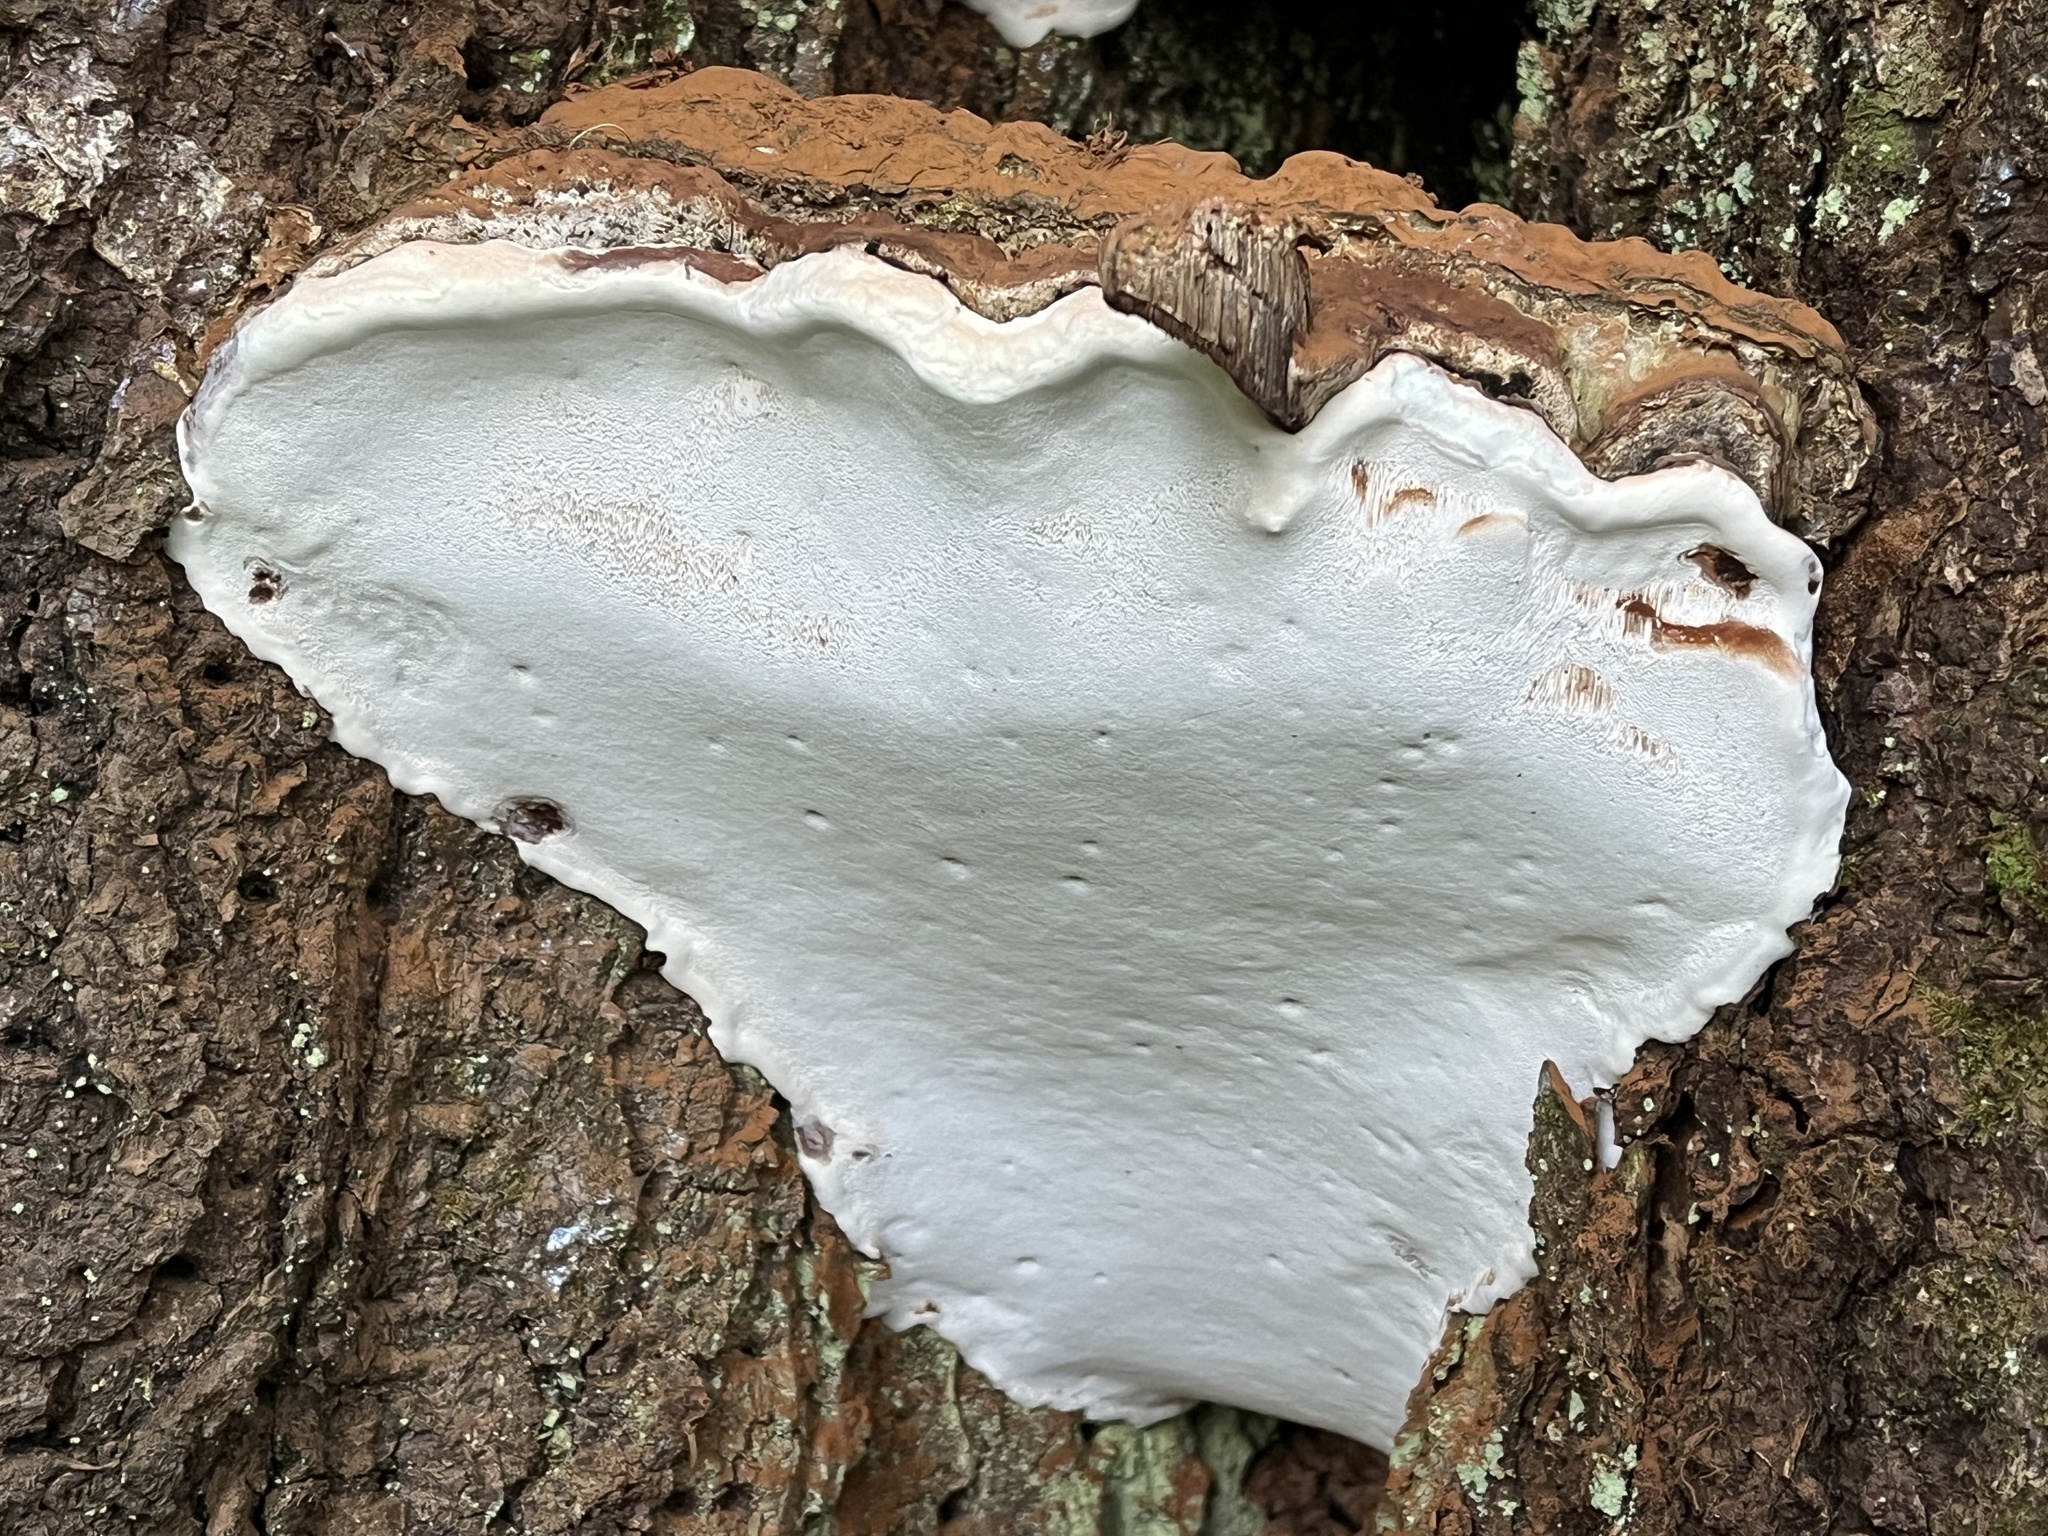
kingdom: Fungi
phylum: Basidiomycota
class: Agaricomycetes
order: Polyporales
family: Polyporaceae
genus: Ganoderma
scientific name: Ganoderma applanatum
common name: Artist's bracket
